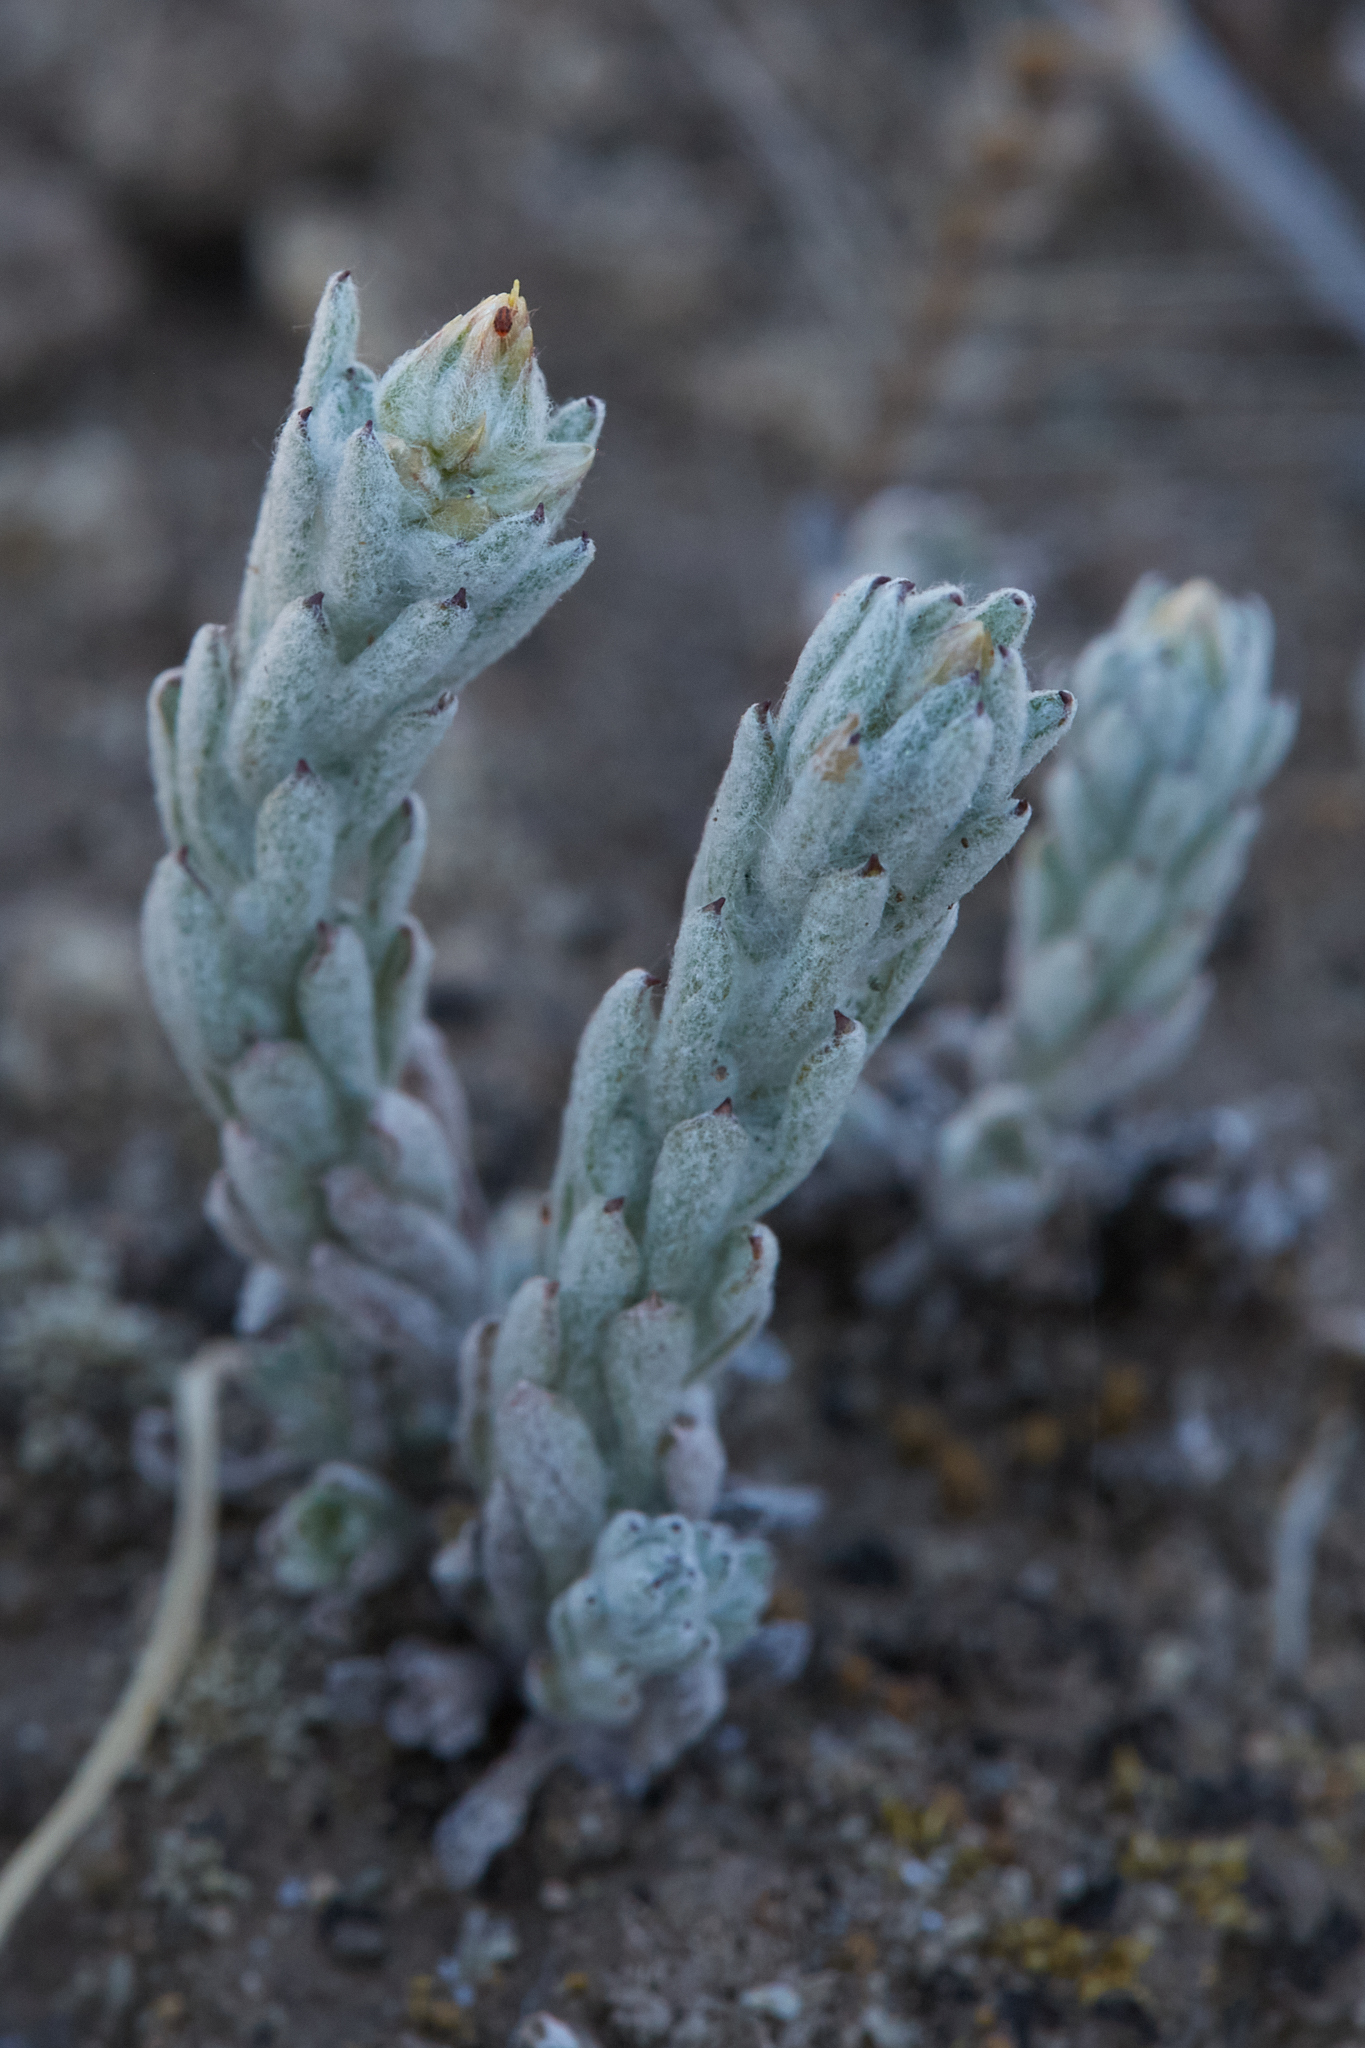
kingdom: Plantae
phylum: Tracheophyta
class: Magnoliopsida
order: Asterales
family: Asteraceae
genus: Filago
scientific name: Filago pyramidata
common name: Broad-leaved cudweed
